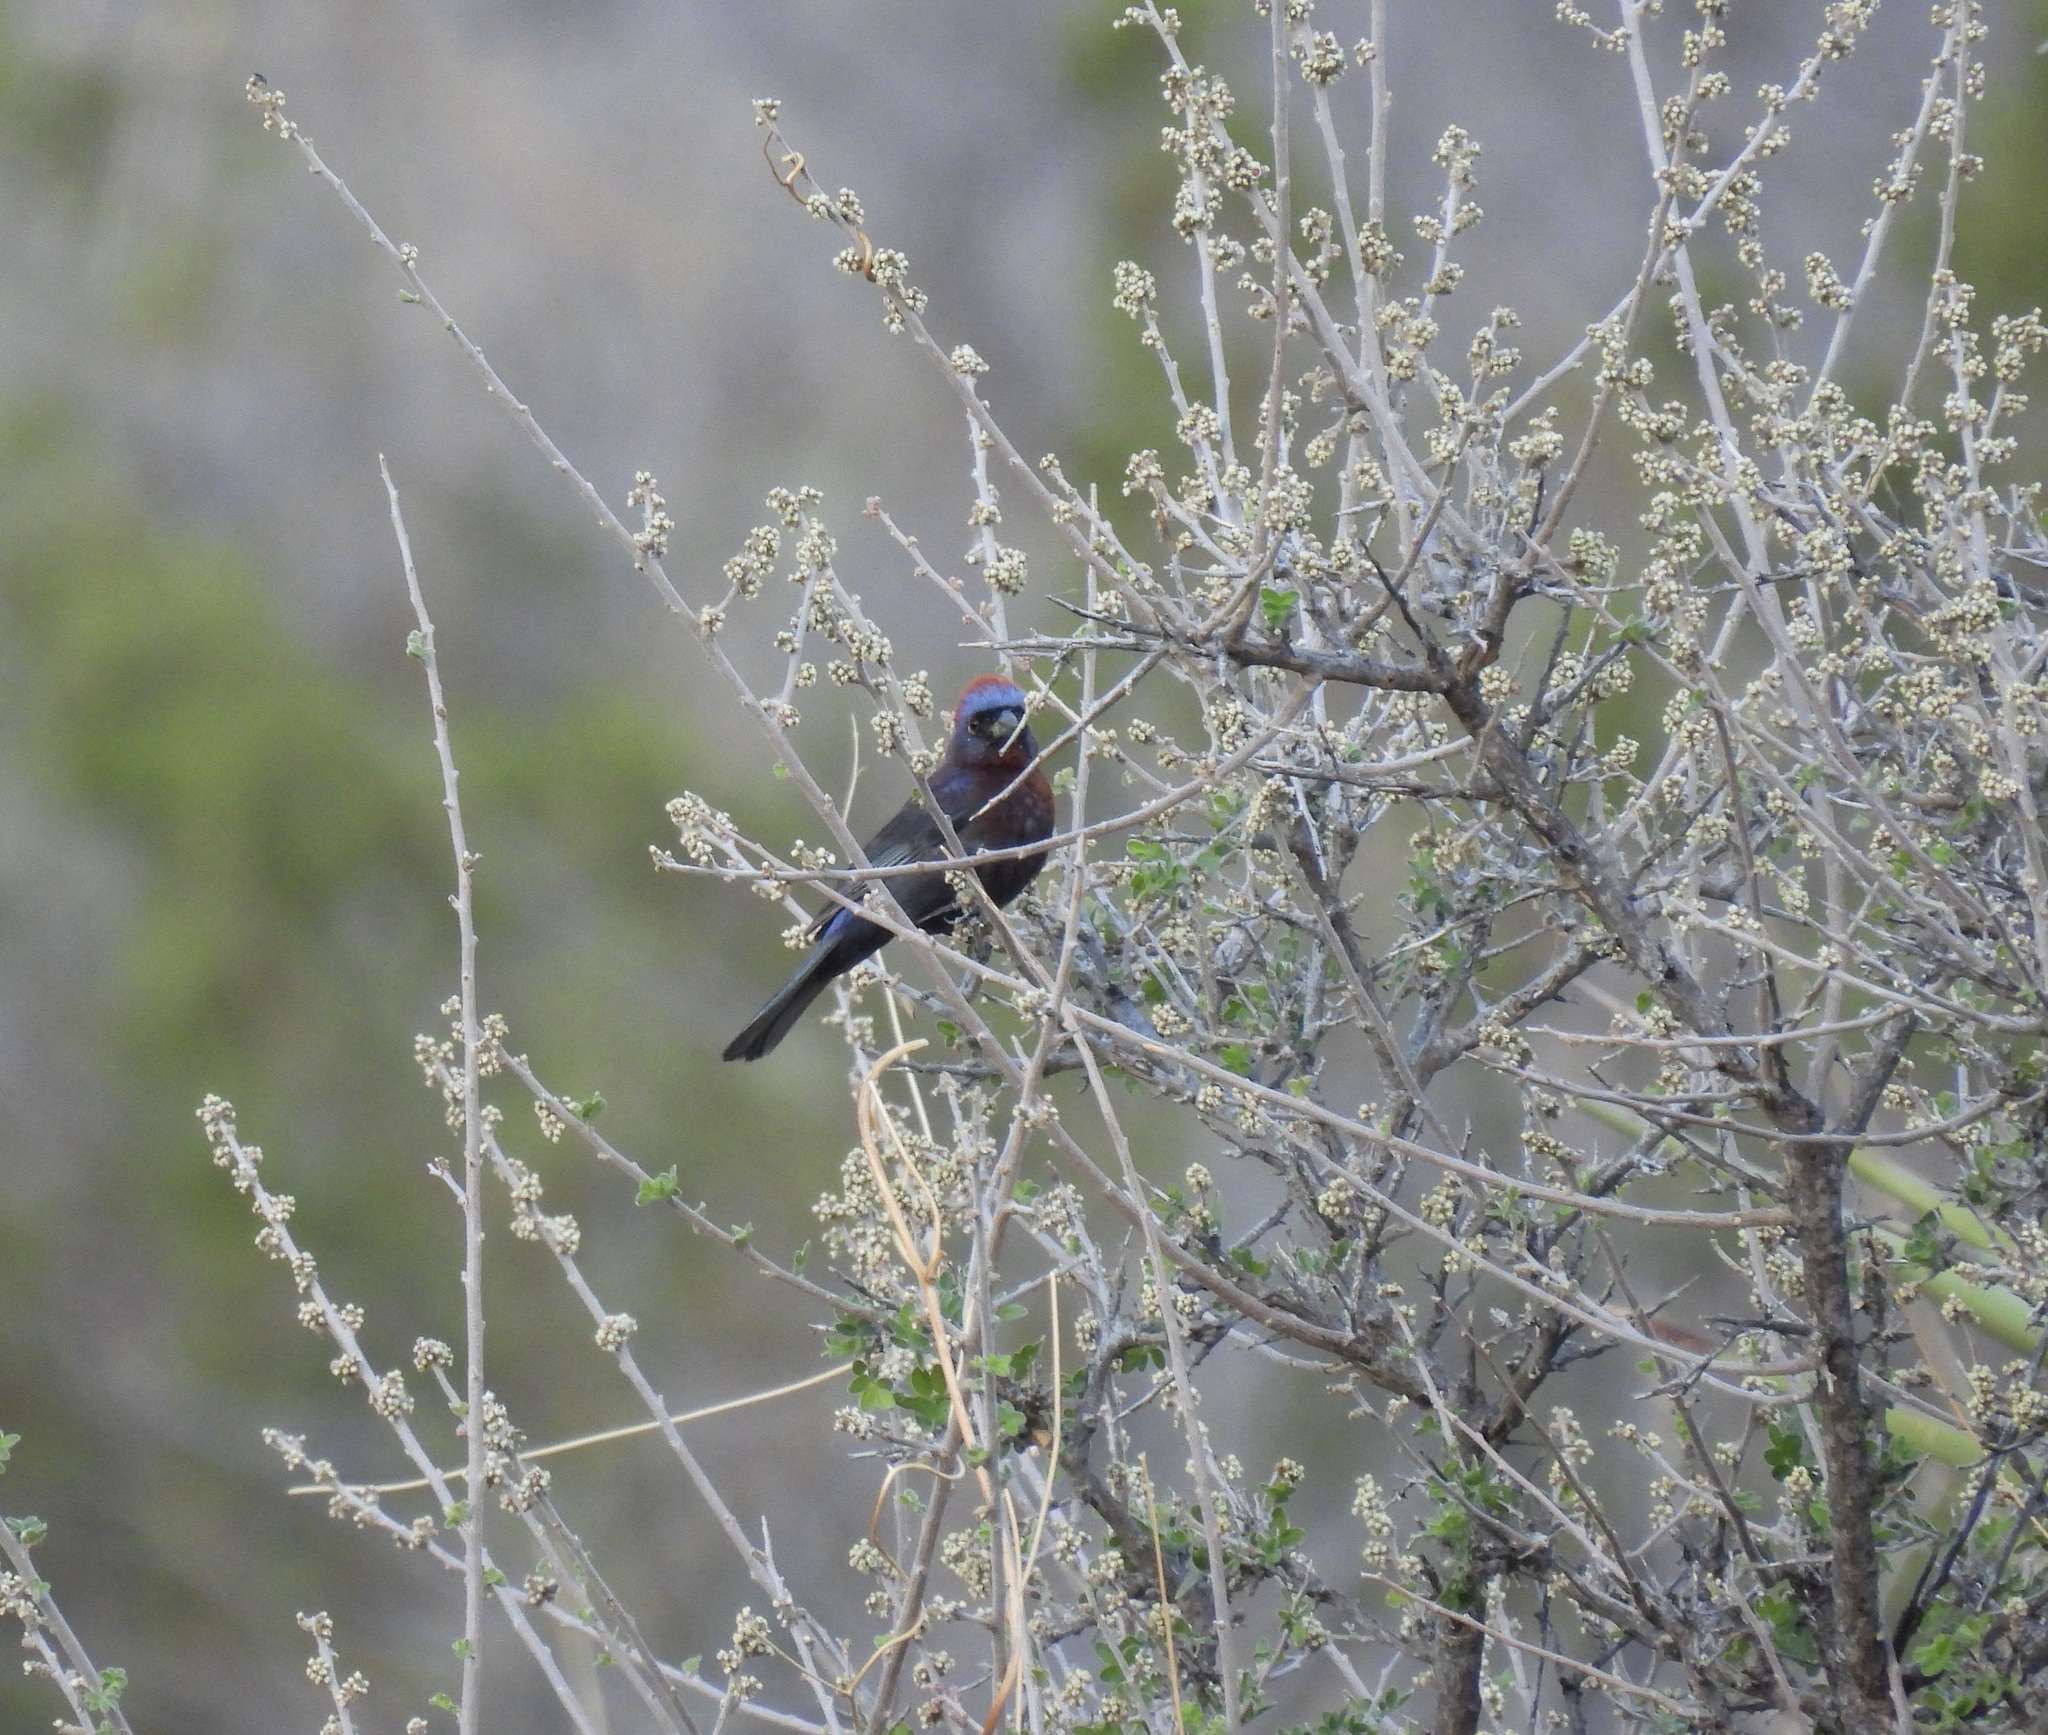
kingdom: Animalia
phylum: Chordata
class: Aves
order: Passeriformes
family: Cardinalidae
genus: Passerina
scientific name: Passerina versicolor
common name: Varied bunting
